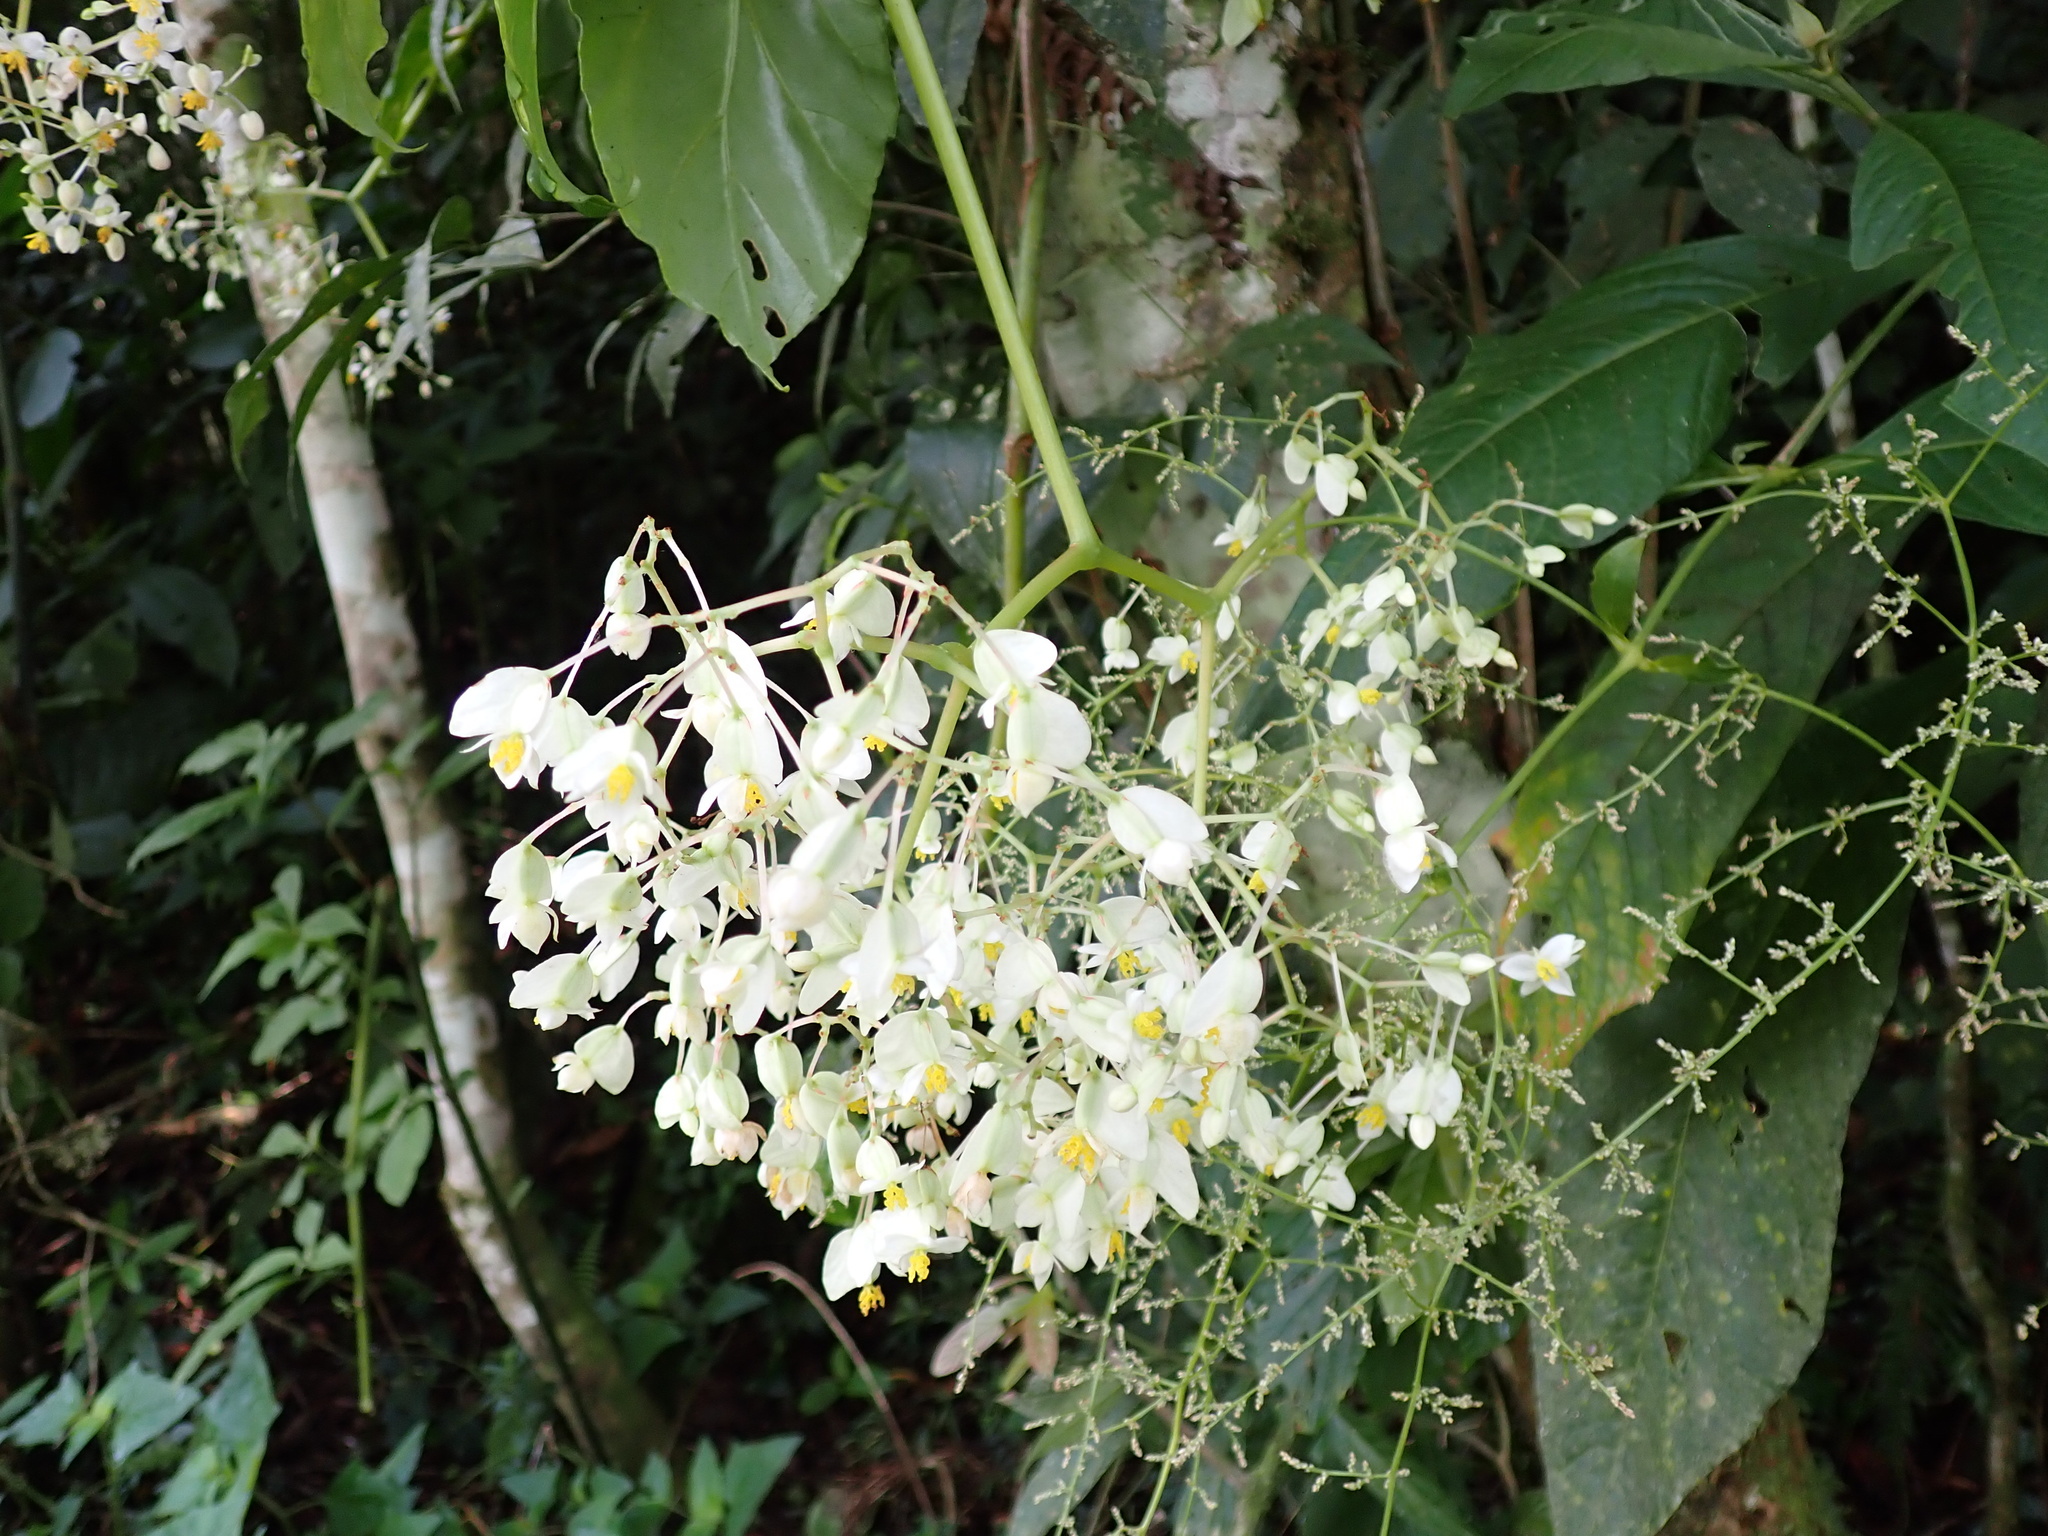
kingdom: Plantae
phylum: Tracheophyta
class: Magnoliopsida
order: Cucurbitales
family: Begoniaceae
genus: Begonia
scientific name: Begonia glabra
